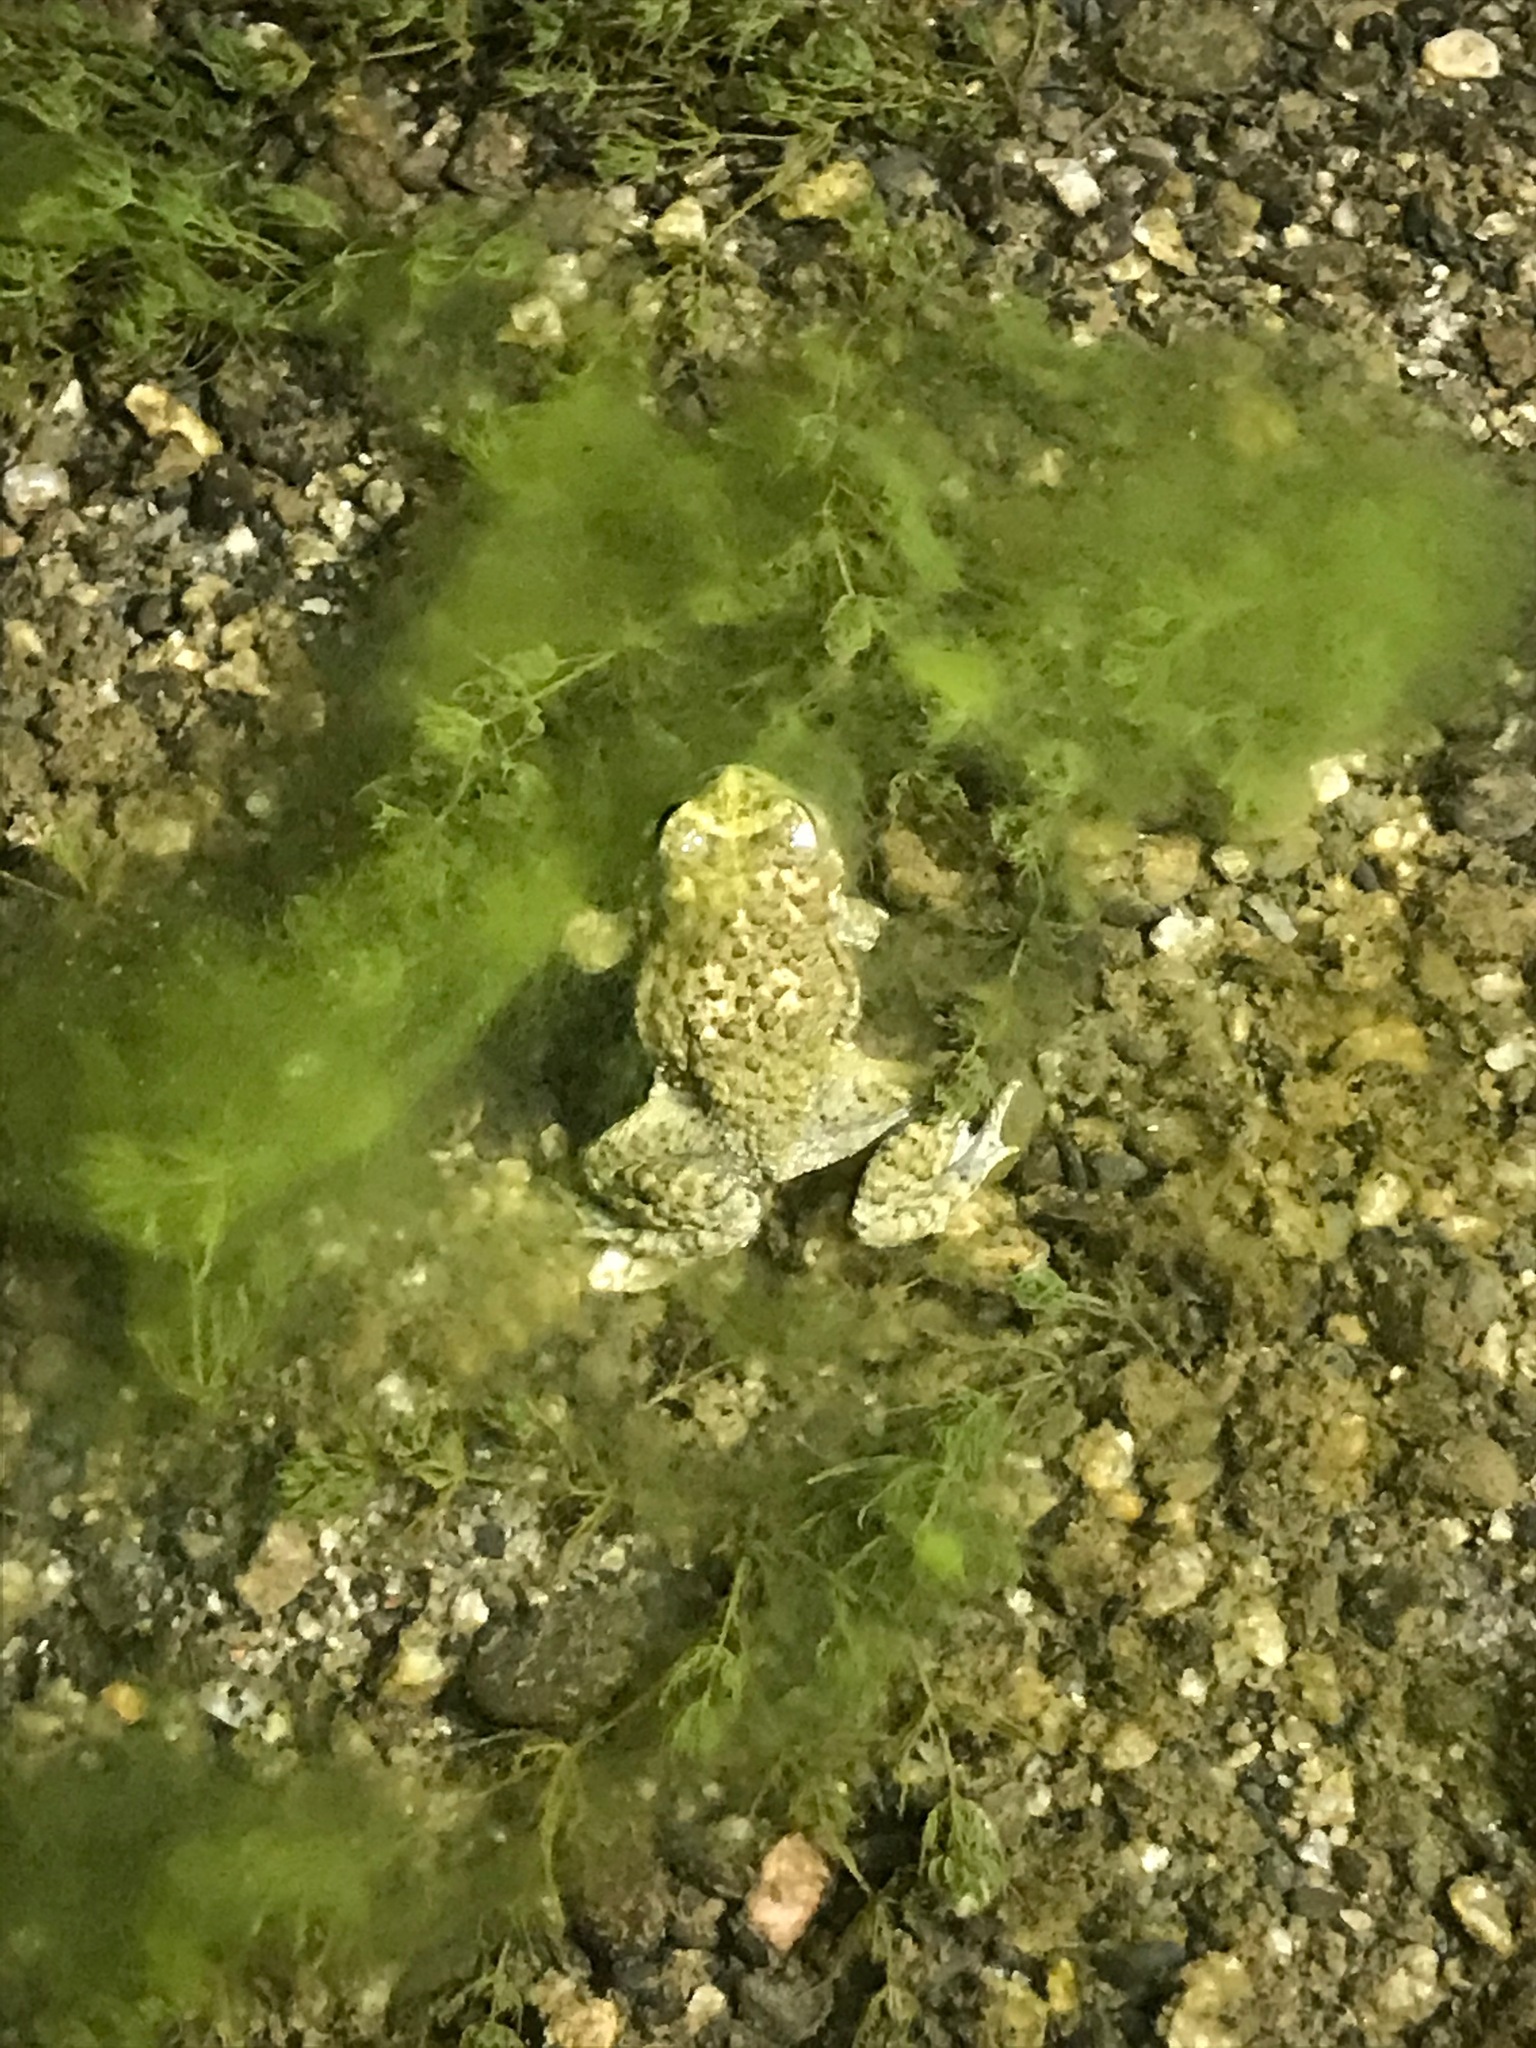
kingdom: Animalia
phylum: Chordata
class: Amphibia
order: Anura
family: Bufonidae
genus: Anaxyrus
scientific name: Anaxyrus californicus
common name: Arroyo toad
